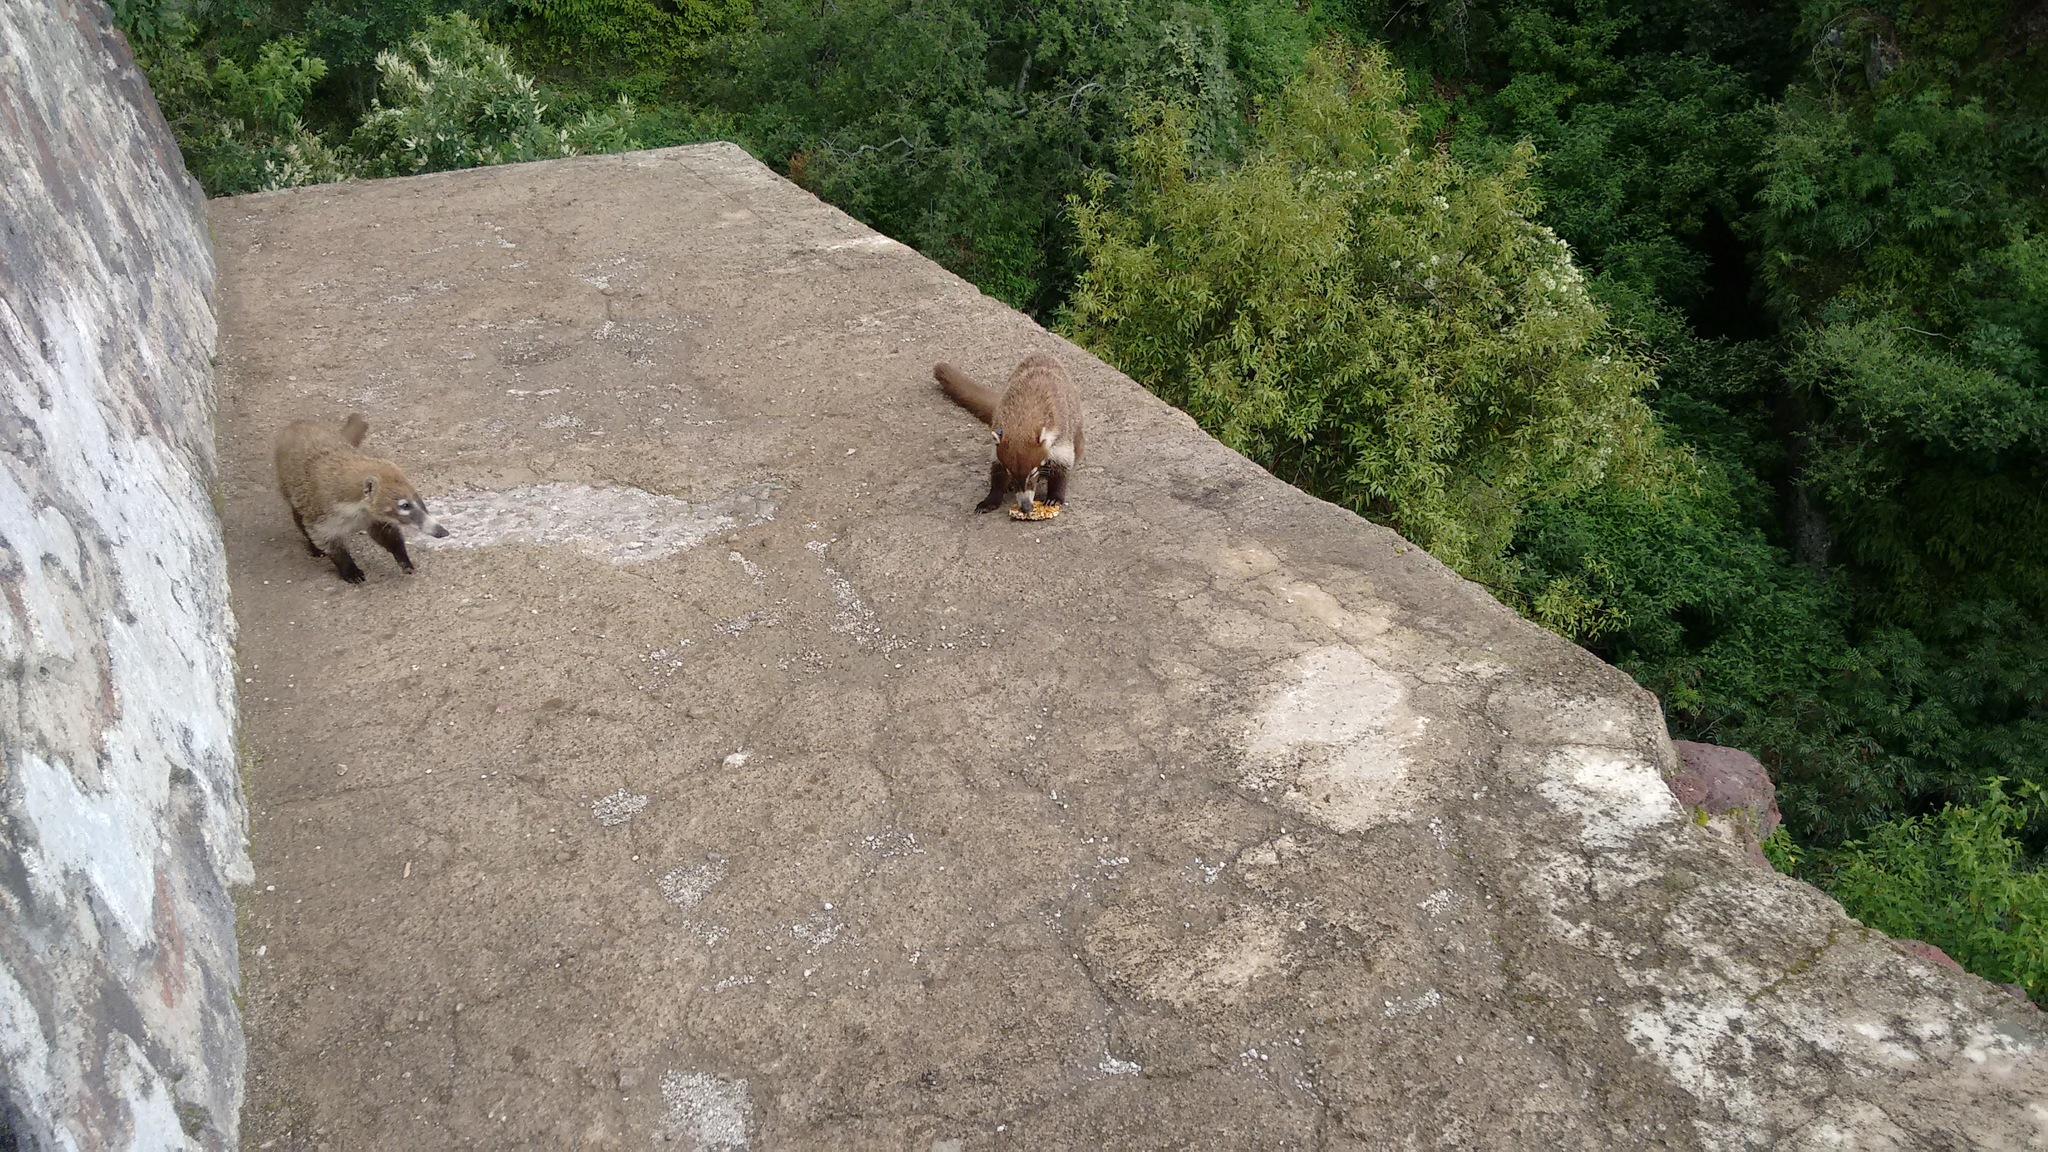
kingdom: Animalia
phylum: Chordata
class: Mammalia
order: Carnivora
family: Procyonidae
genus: Nasua
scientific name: Nasua narica
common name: White-nosed coati
